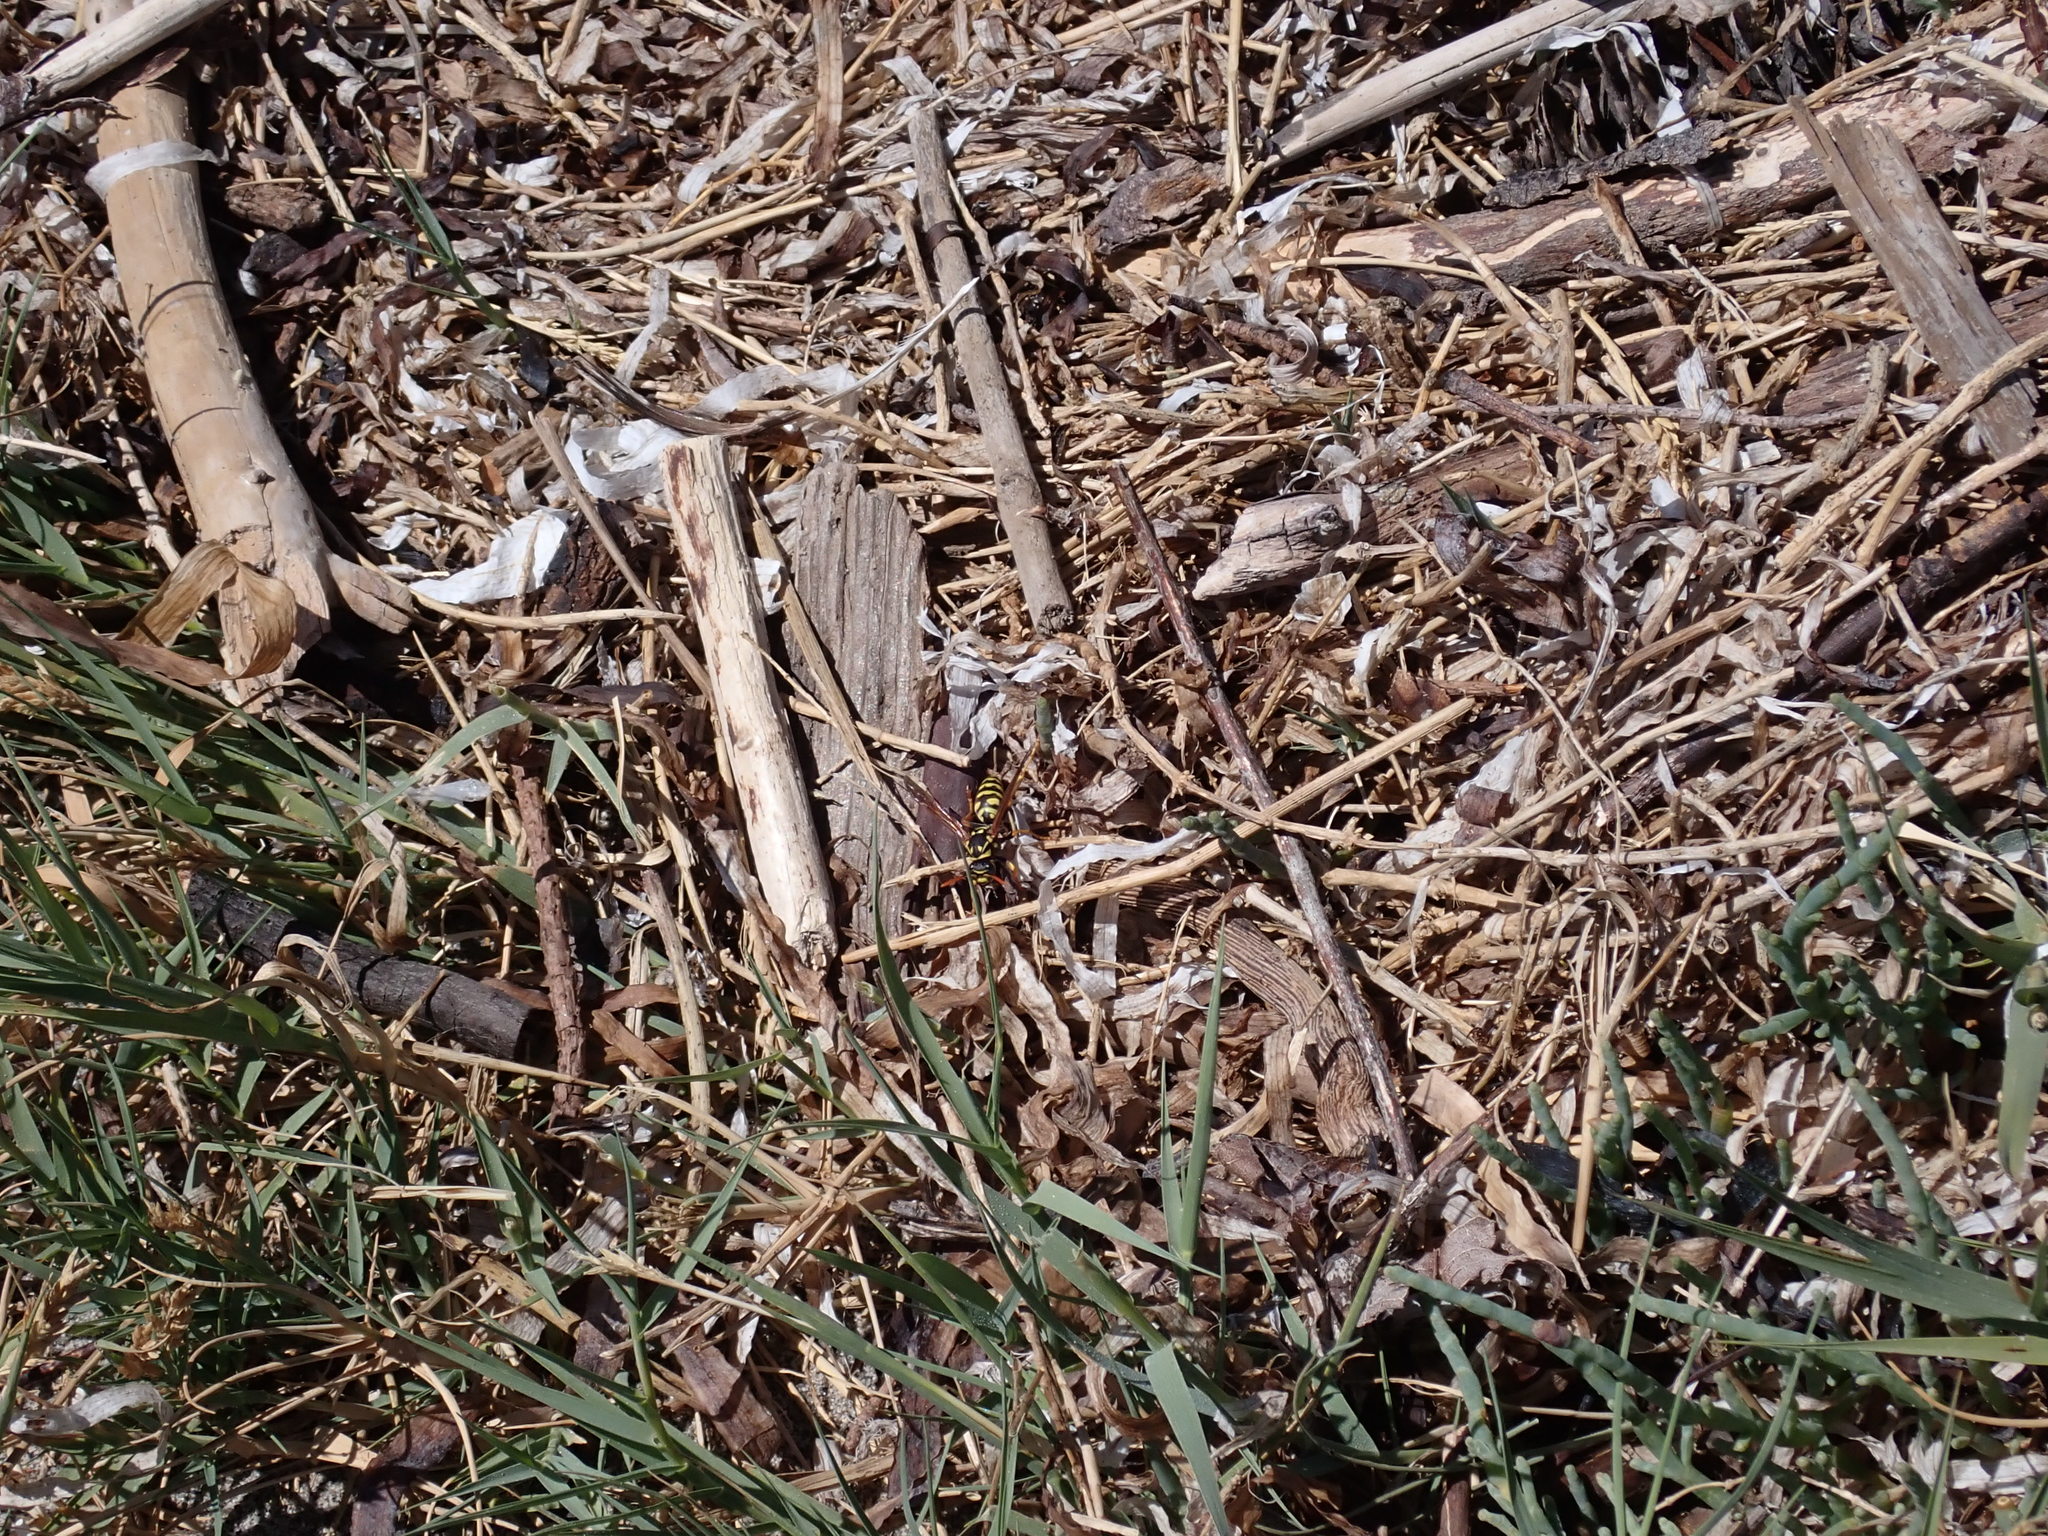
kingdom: Animalia
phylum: Arthropoda
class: Insecta
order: Hymenoptera
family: Eumenidae
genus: Polistes
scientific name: Polistes dominula
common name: Paper wasp
